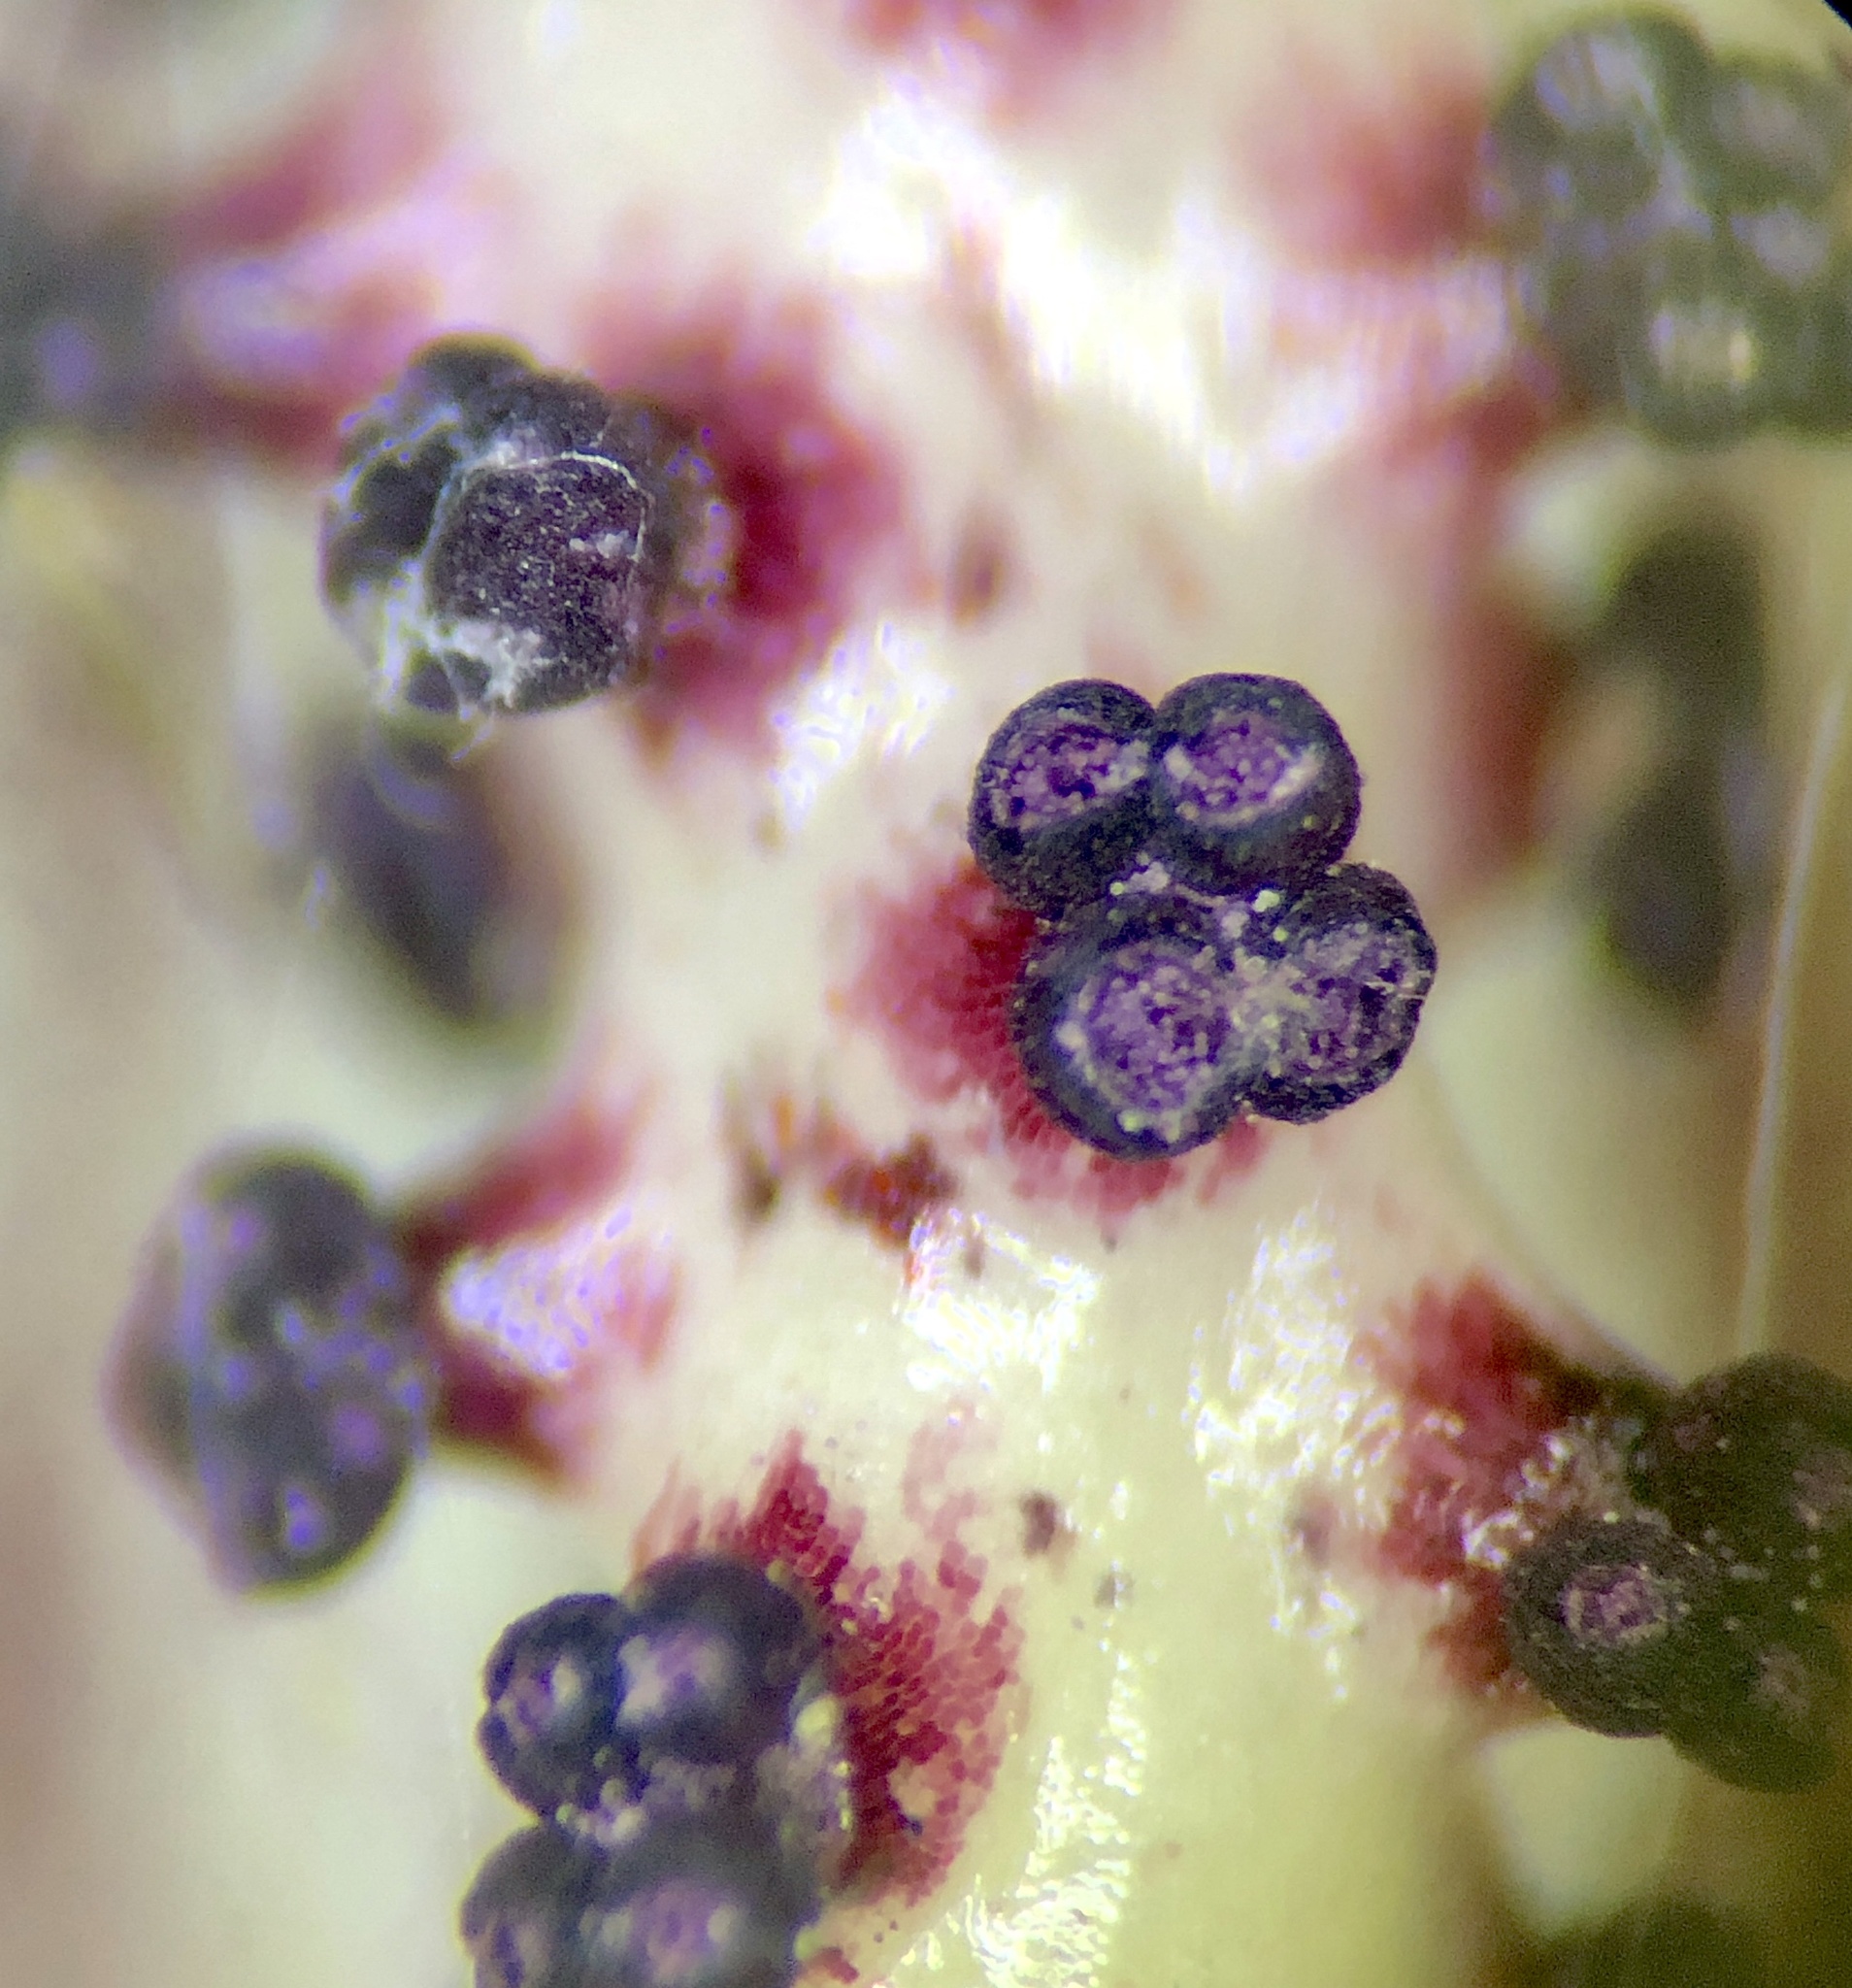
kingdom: Plantae
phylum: Tracheophyta
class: Liliopsida
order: Alismatales
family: Araceae
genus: Arisaema
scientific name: Arisaema triphyllum
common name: Jack-in-the-pulpit
